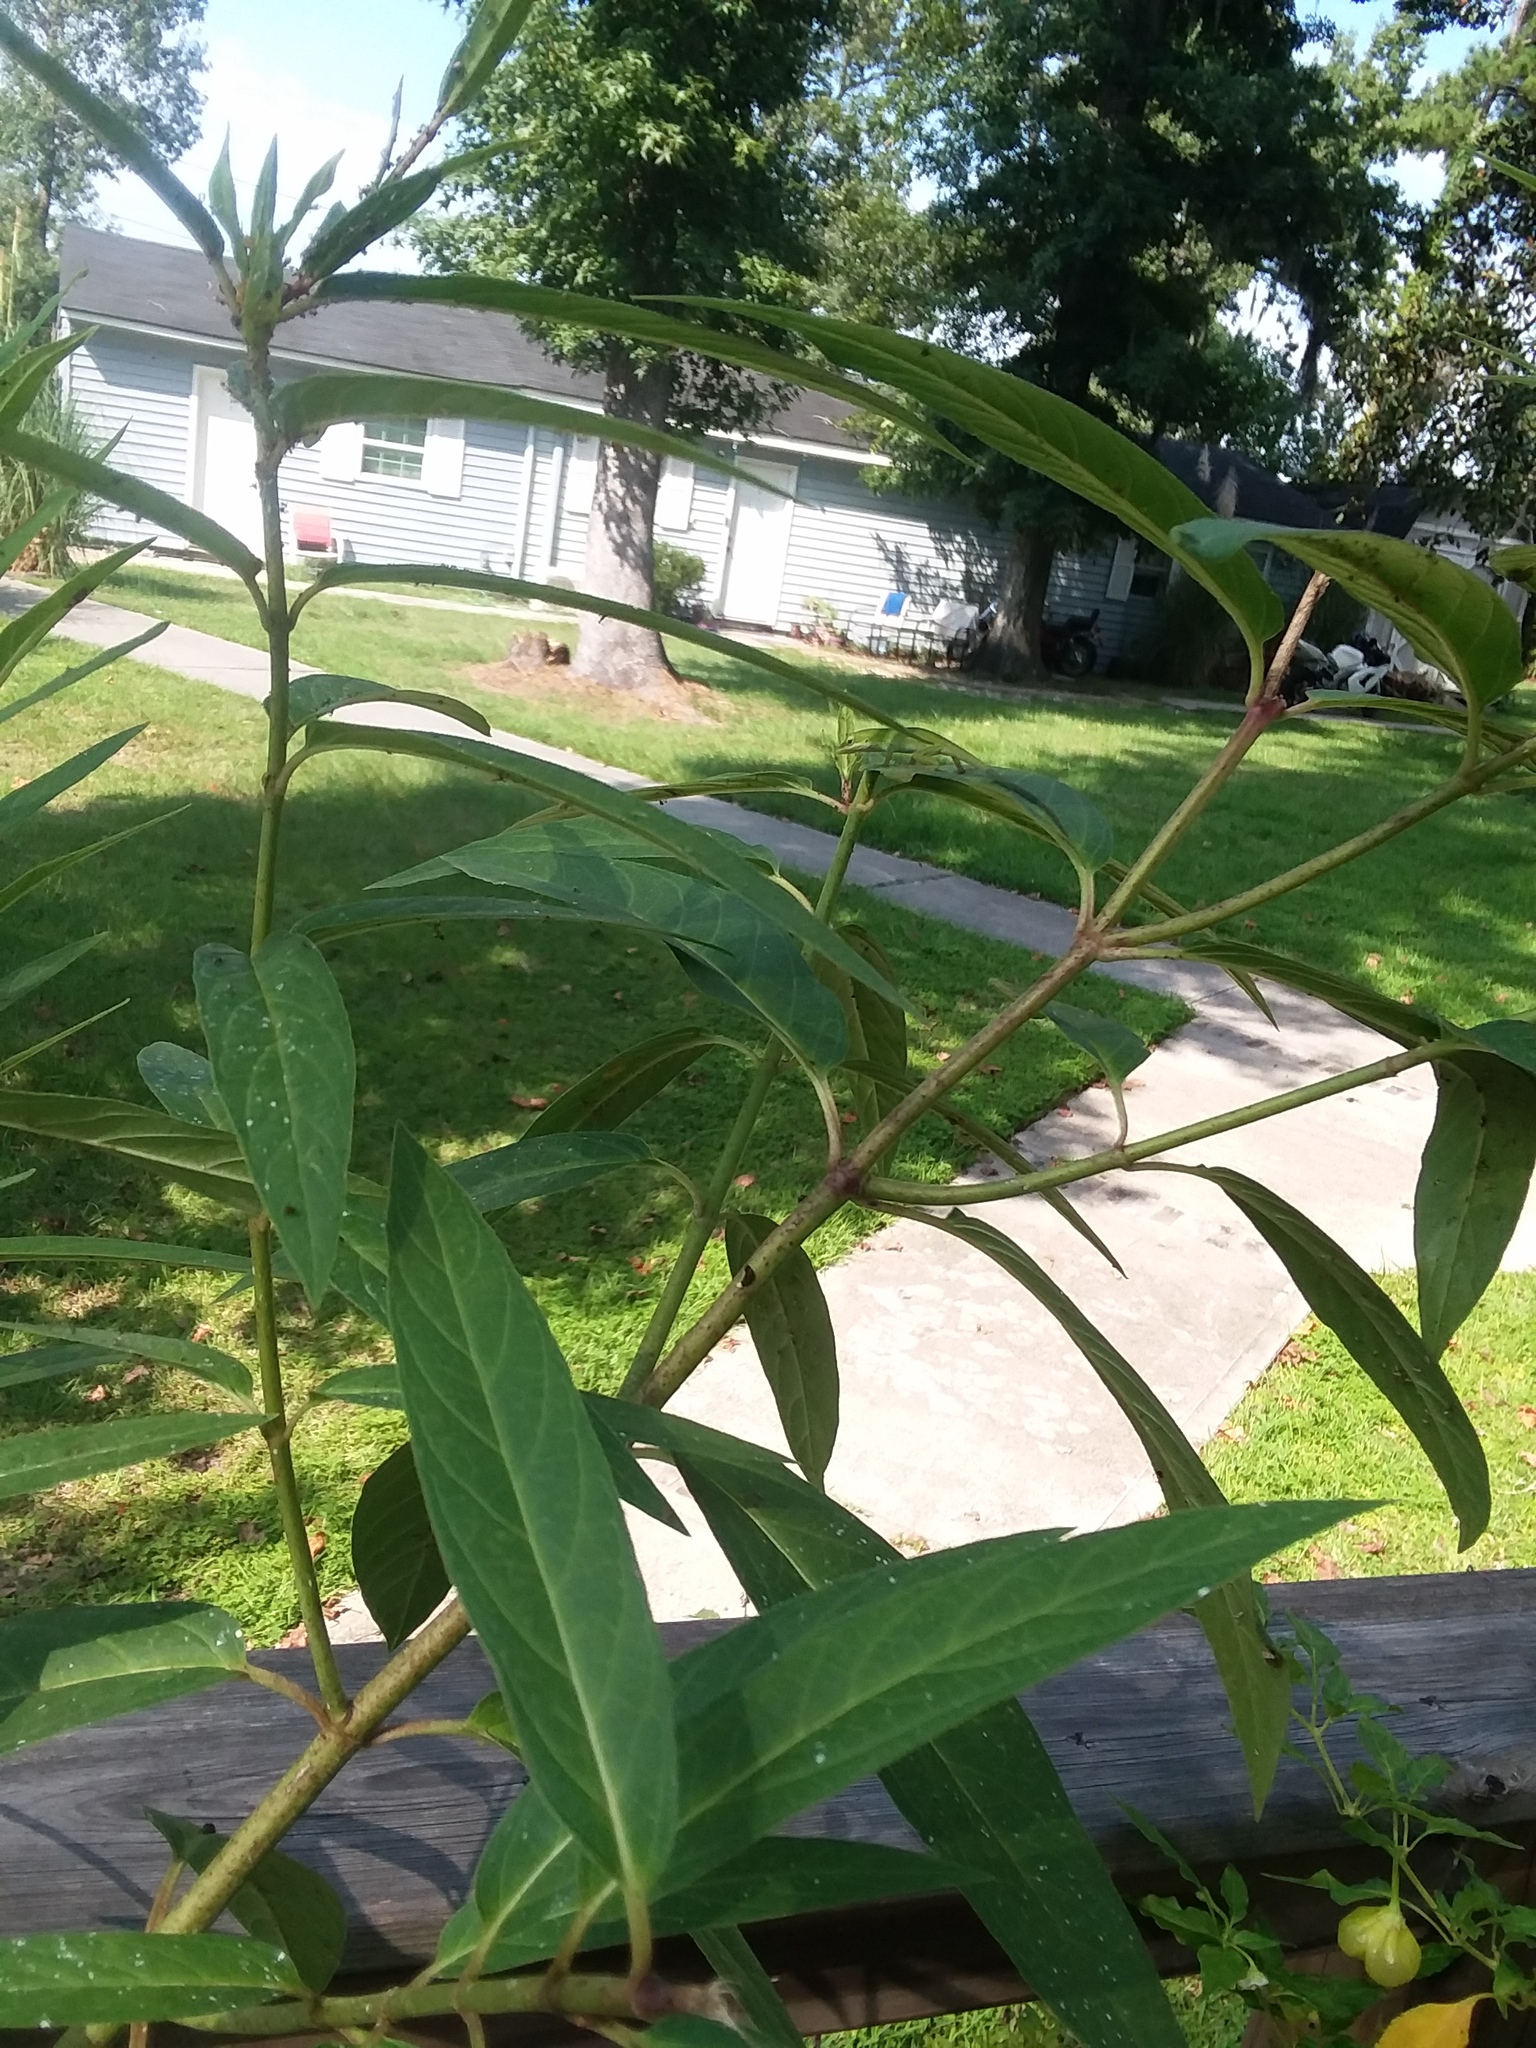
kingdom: Animalia
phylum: Chordata
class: Squamata
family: Dactyloidae
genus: Anolis
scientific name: Anolis carolinensis
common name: Green anole
